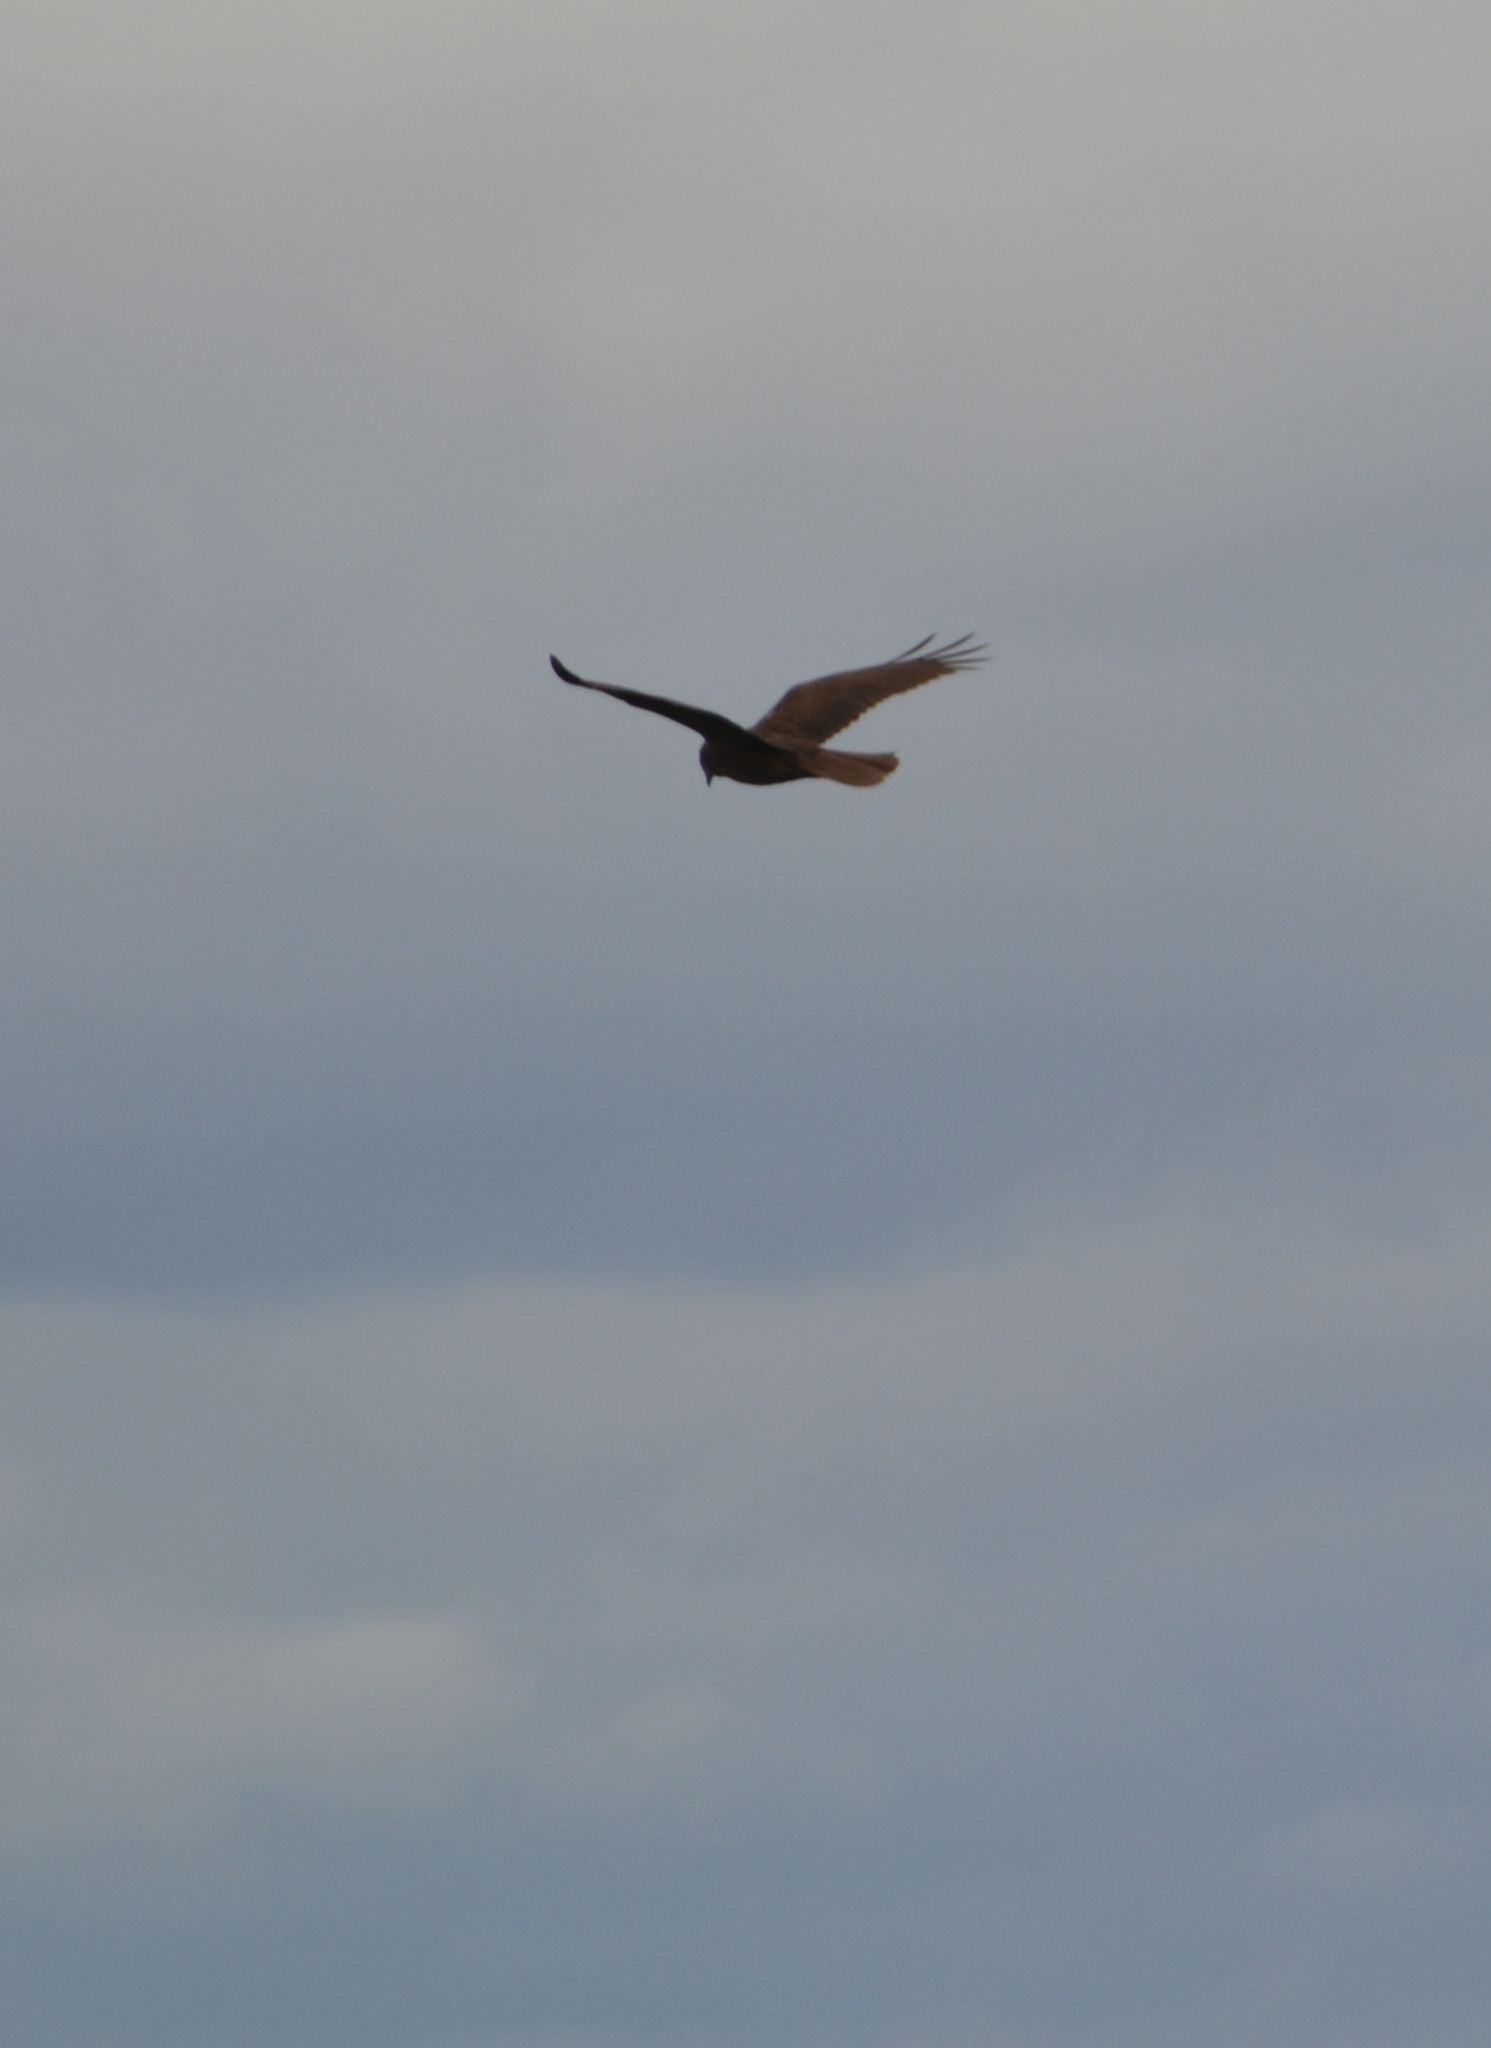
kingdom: Animalia
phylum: Chordata
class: Aves
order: Accipitriformes
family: Accipitridae
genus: Circus
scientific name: Circus aeruginosus
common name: Western marsh harrier
